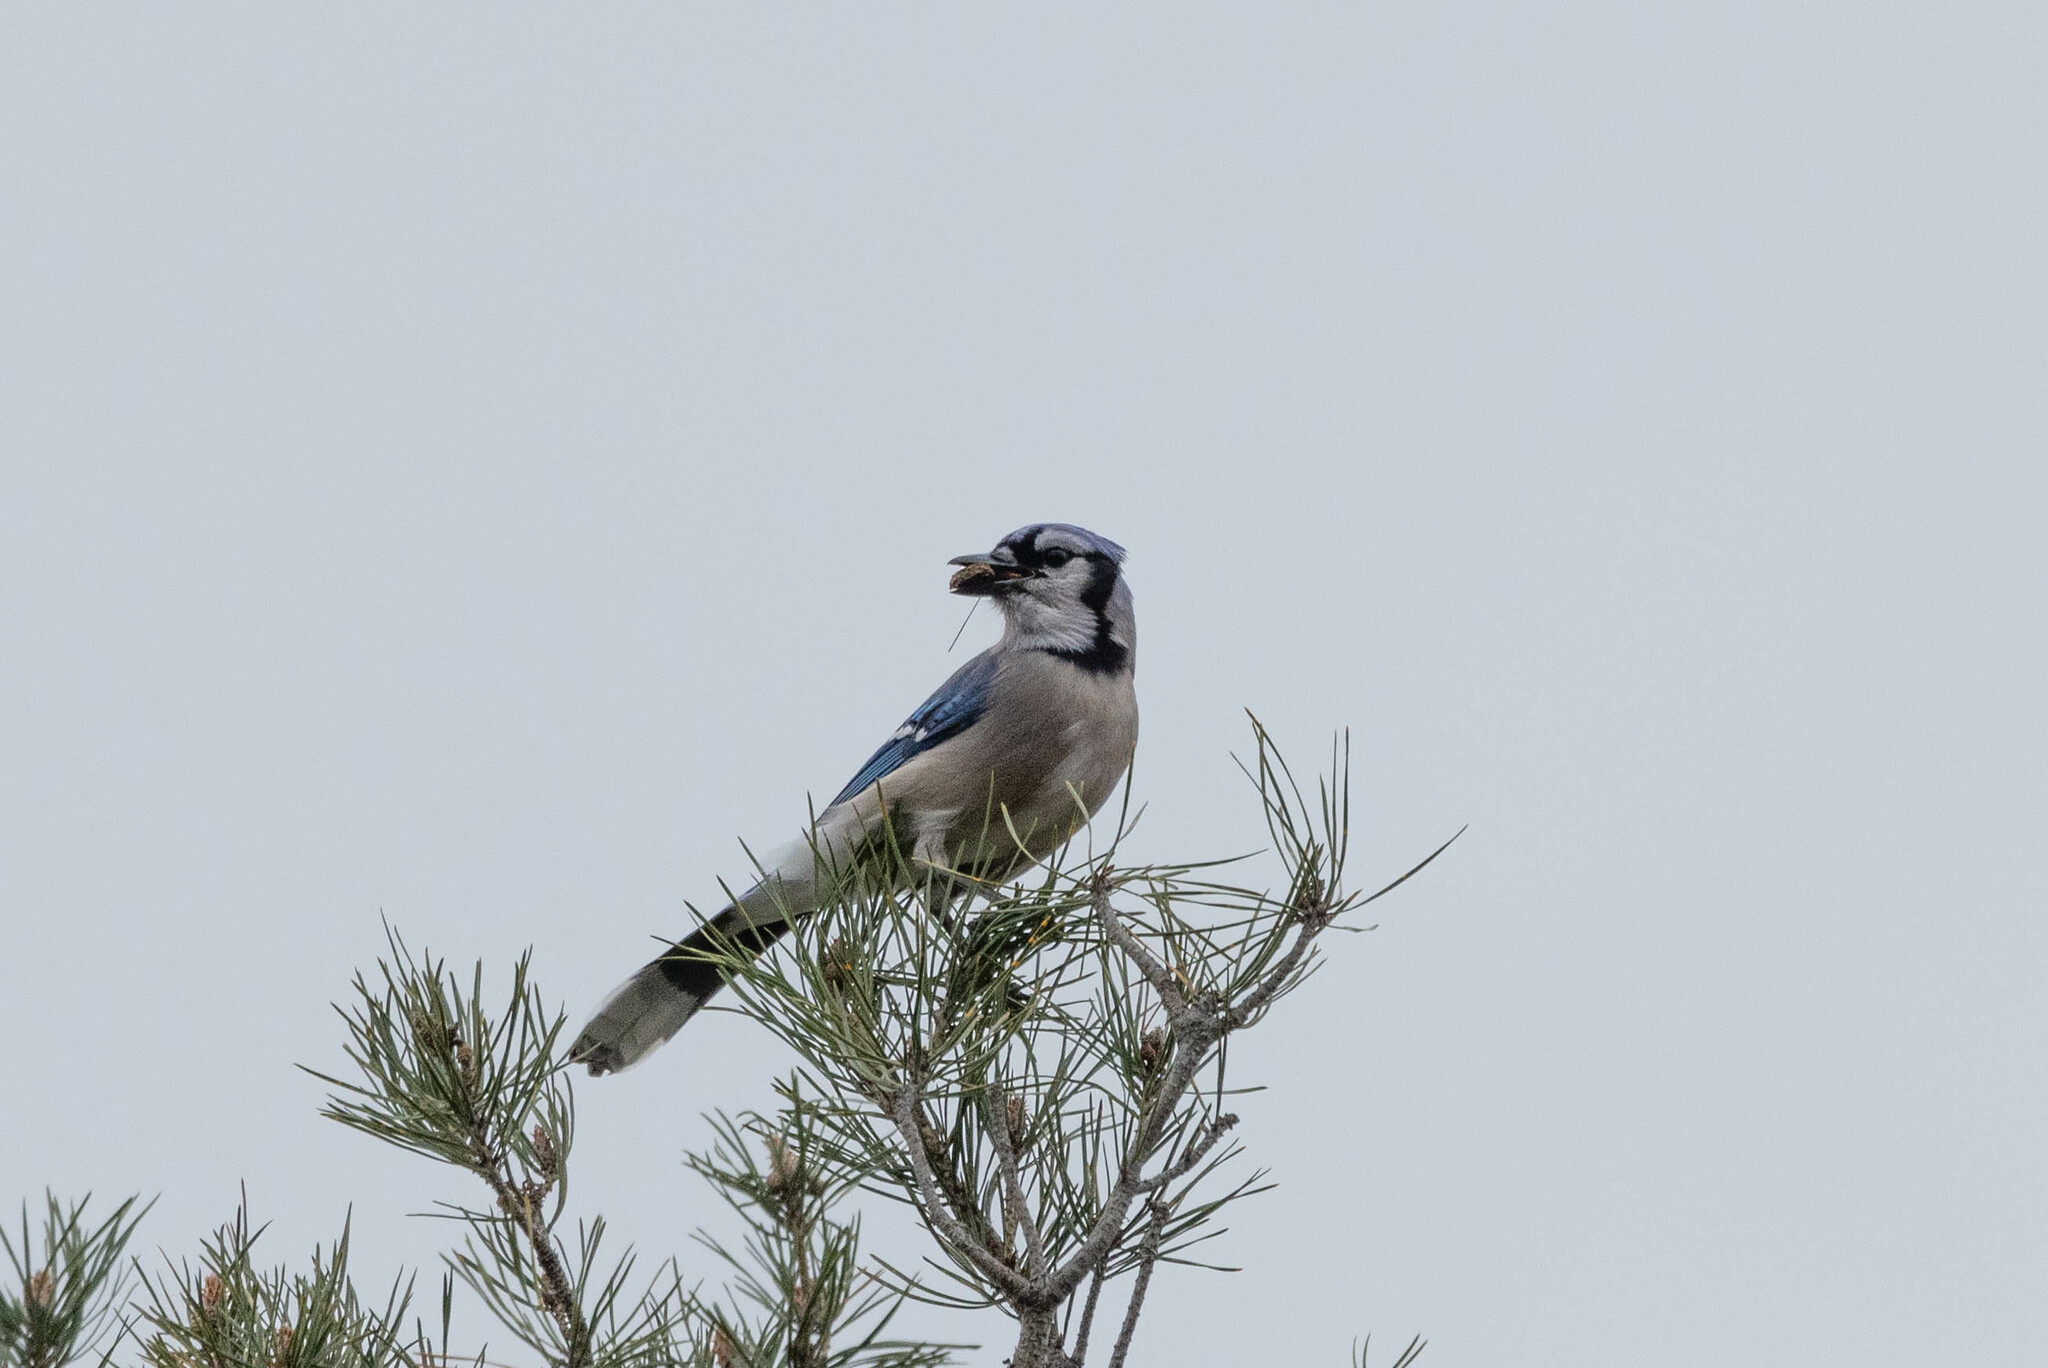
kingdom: Animalia
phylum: Chordata
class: Aves
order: Passeriformes
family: Corvidae
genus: Cyanocitta
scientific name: Cyanocitta cristata
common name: Blue jay
